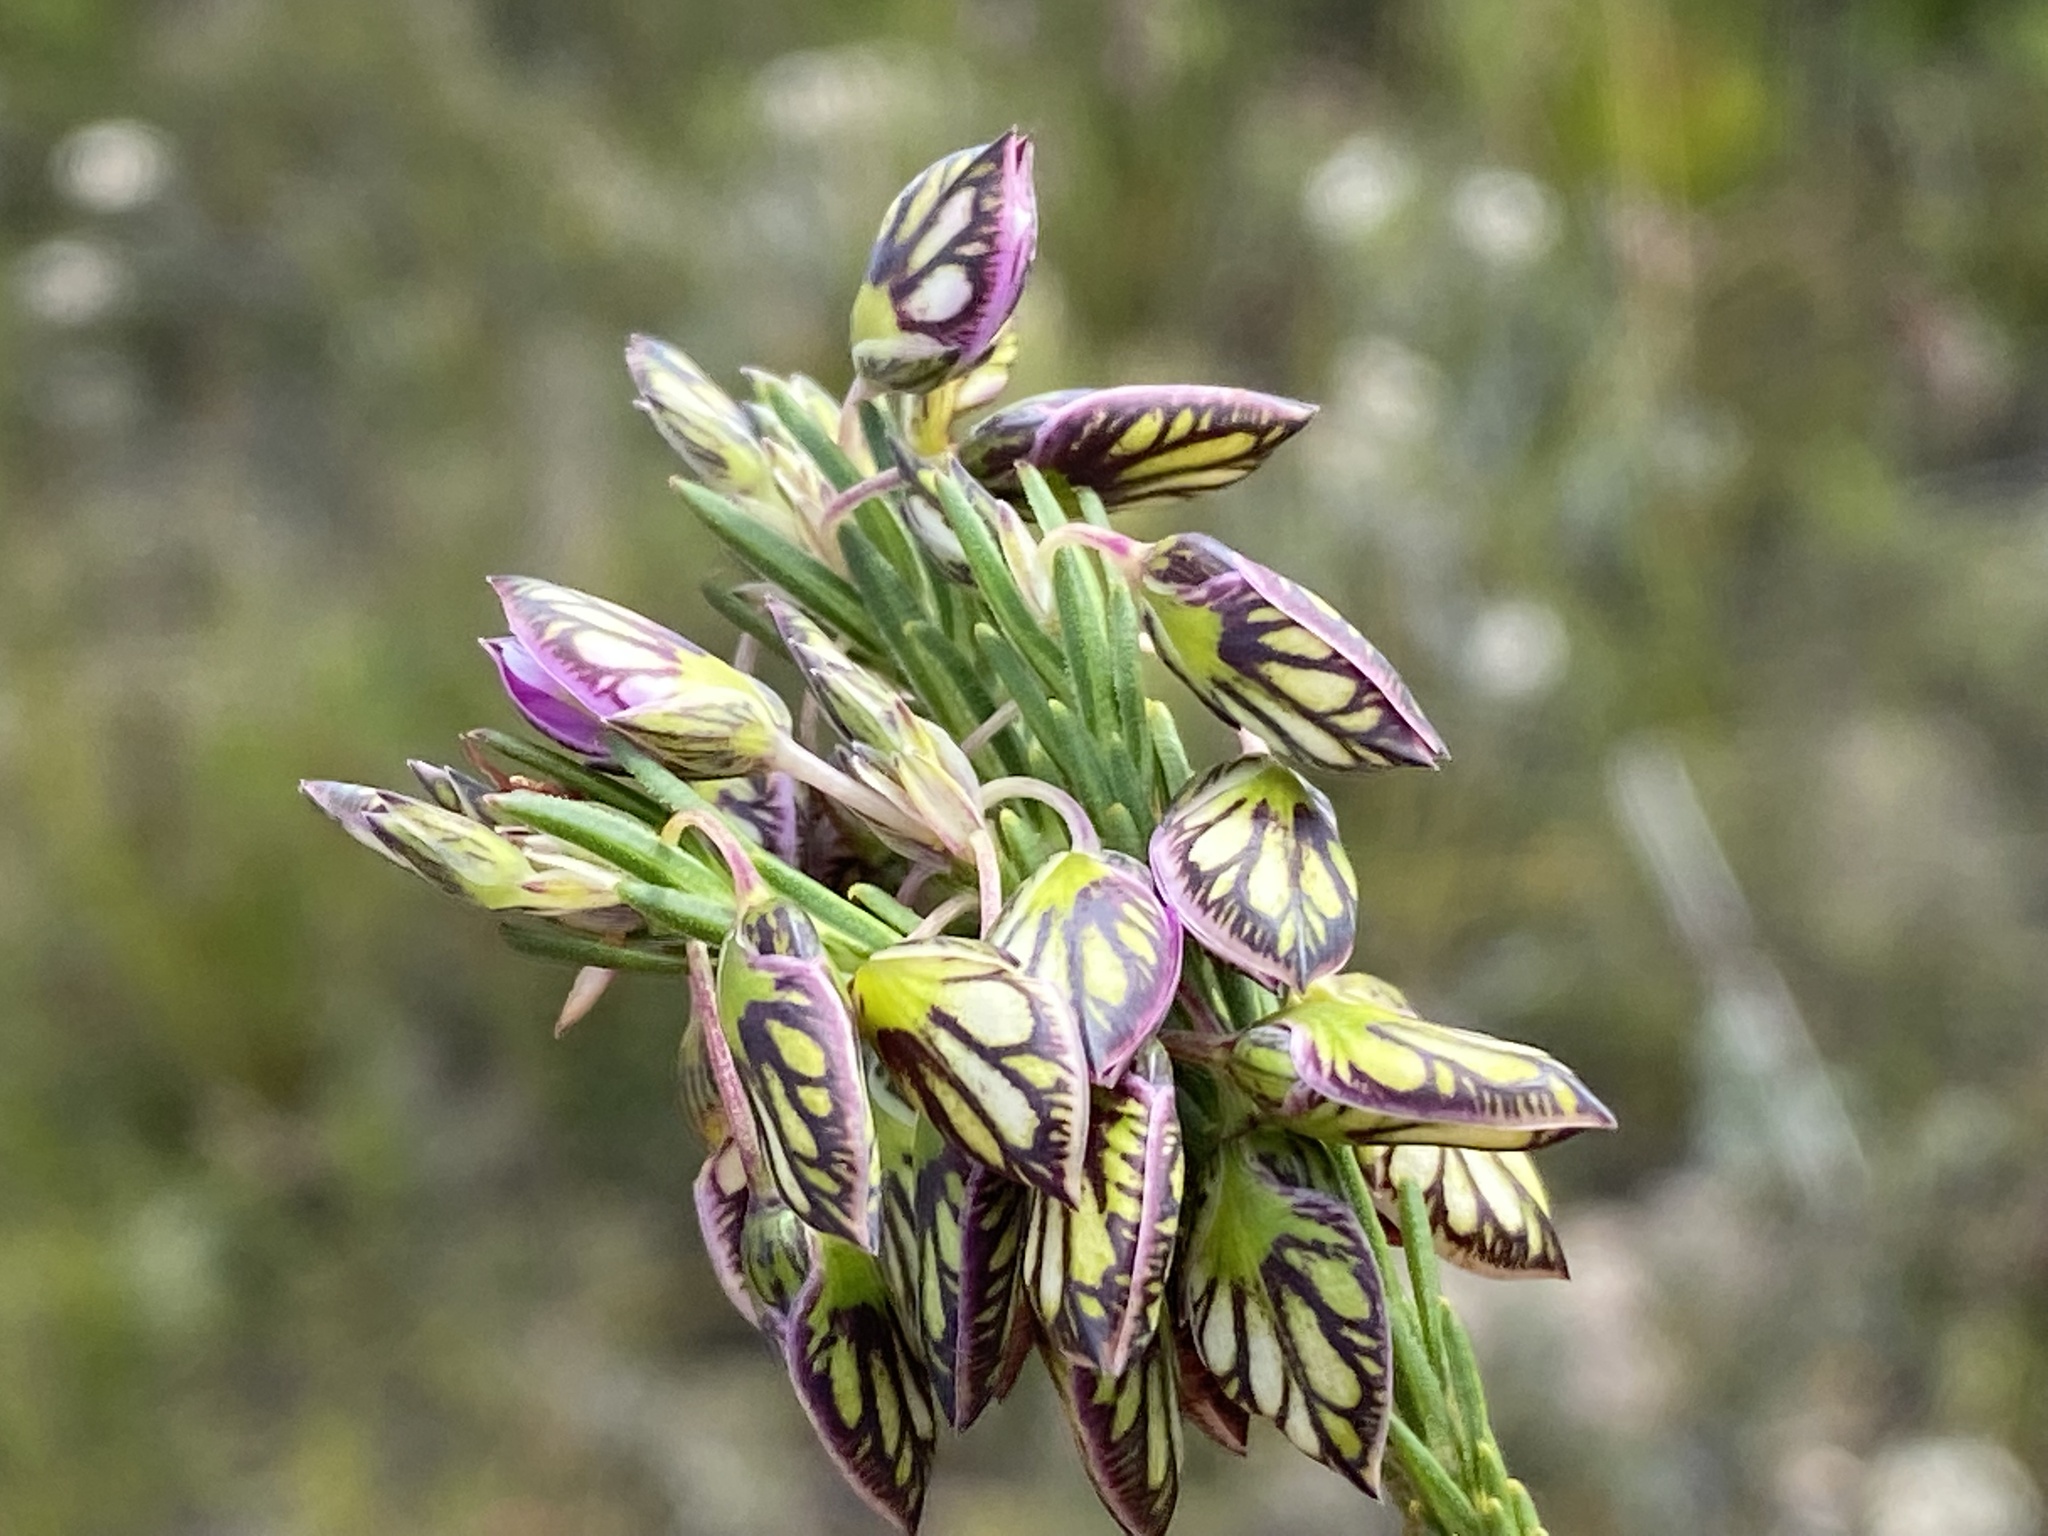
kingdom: Plantae
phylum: Tracheophyta
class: Magnoliopsida
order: Fabales
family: Polygalaceae
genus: Polygala
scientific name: Polygala umbellata
